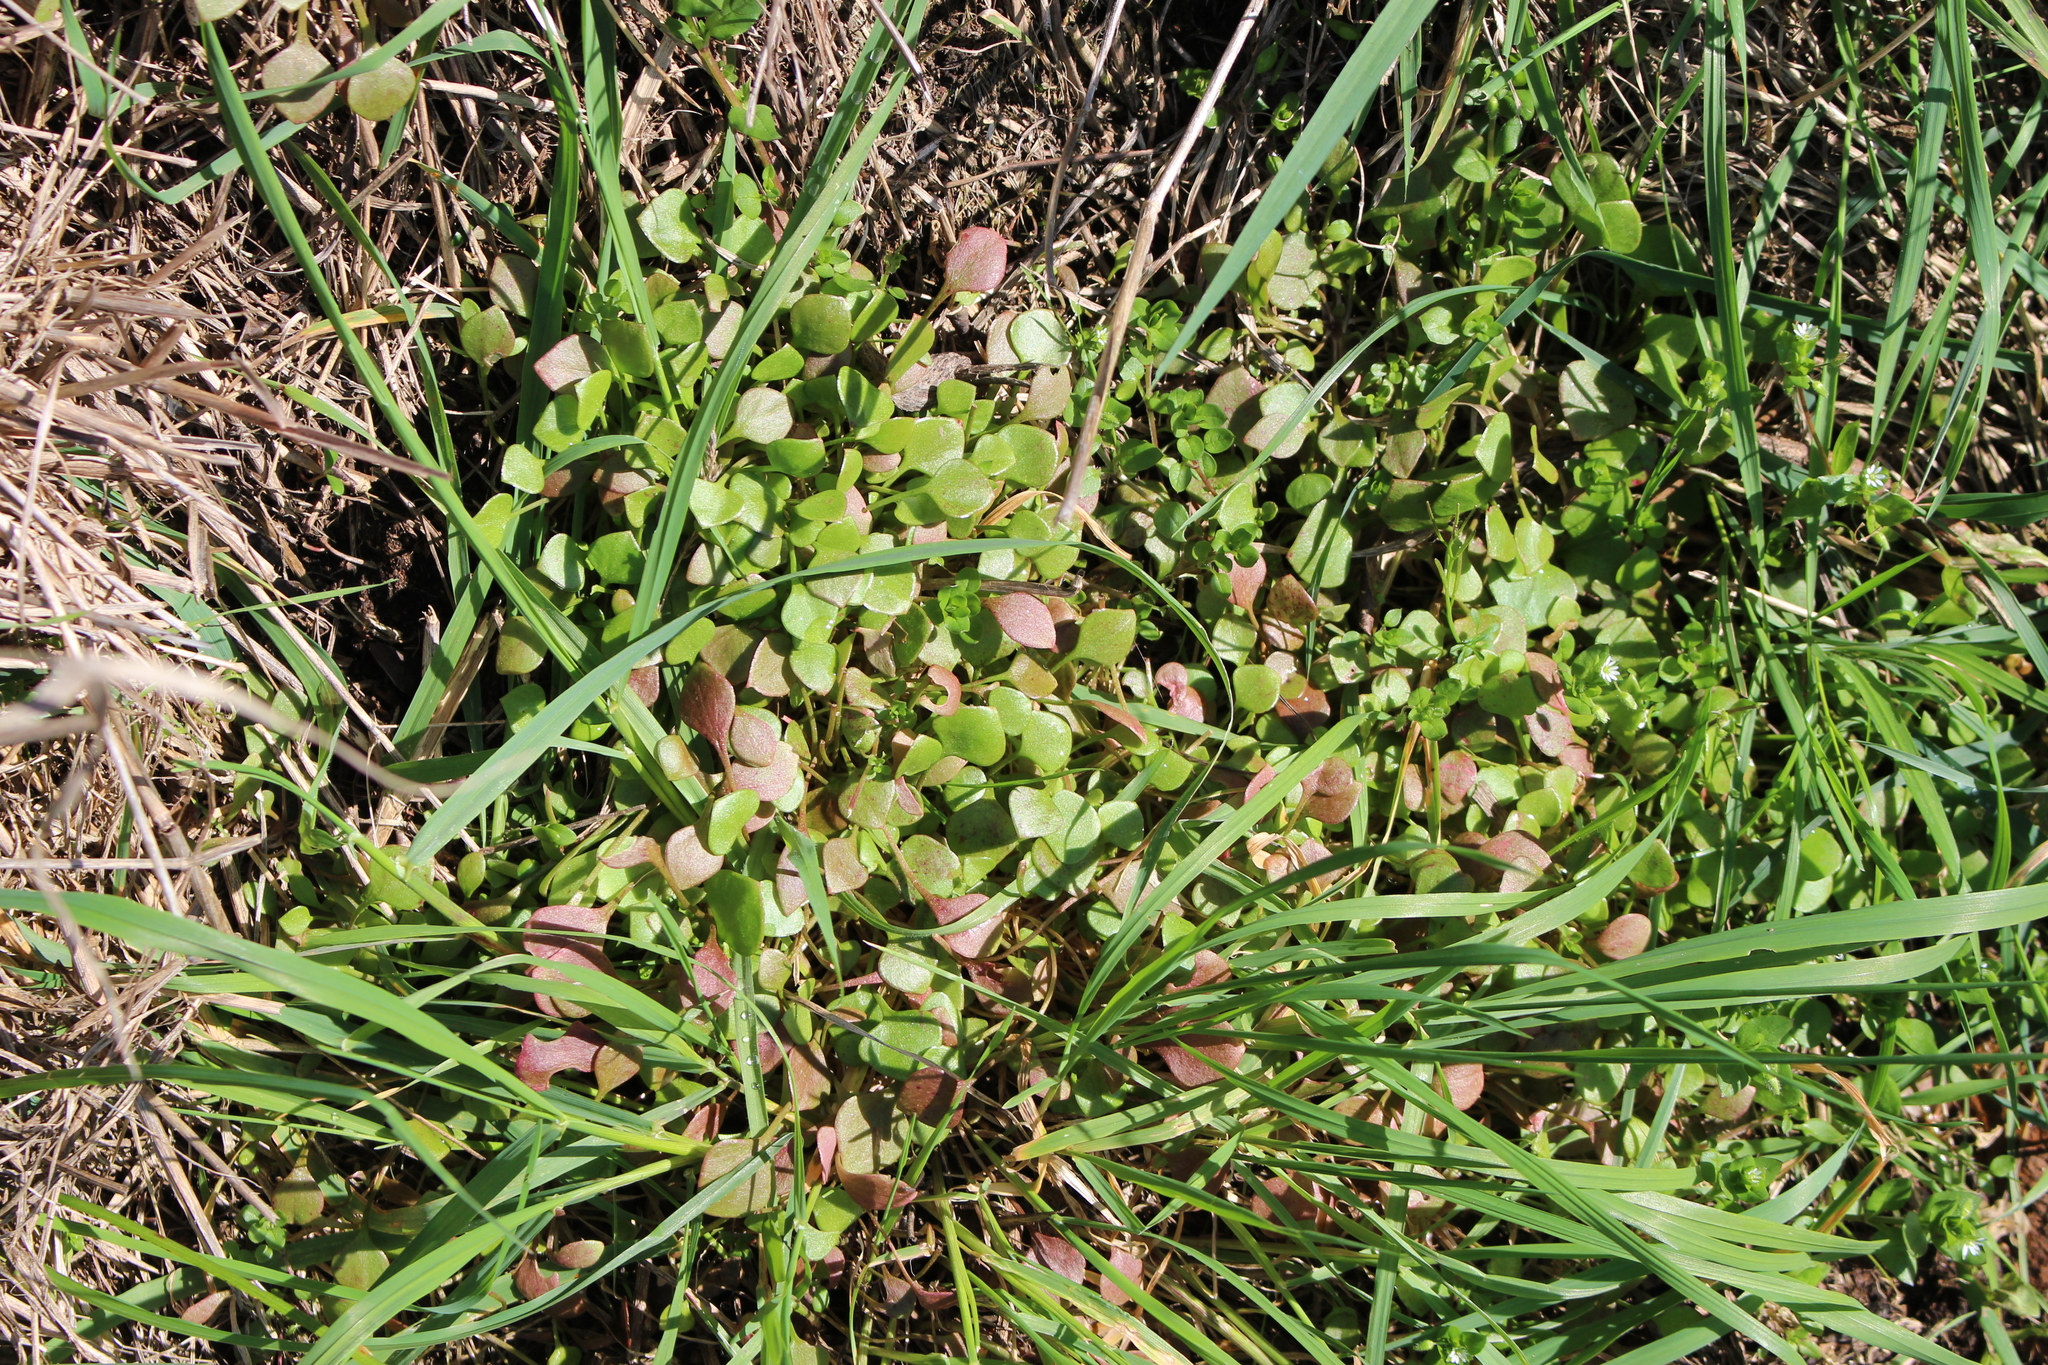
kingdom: Plantae
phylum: Tracheophyta
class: Magnoliopsida
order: Caryophyllales
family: Montiaceae
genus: Claytonia
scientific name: Claytonia perfoliata
